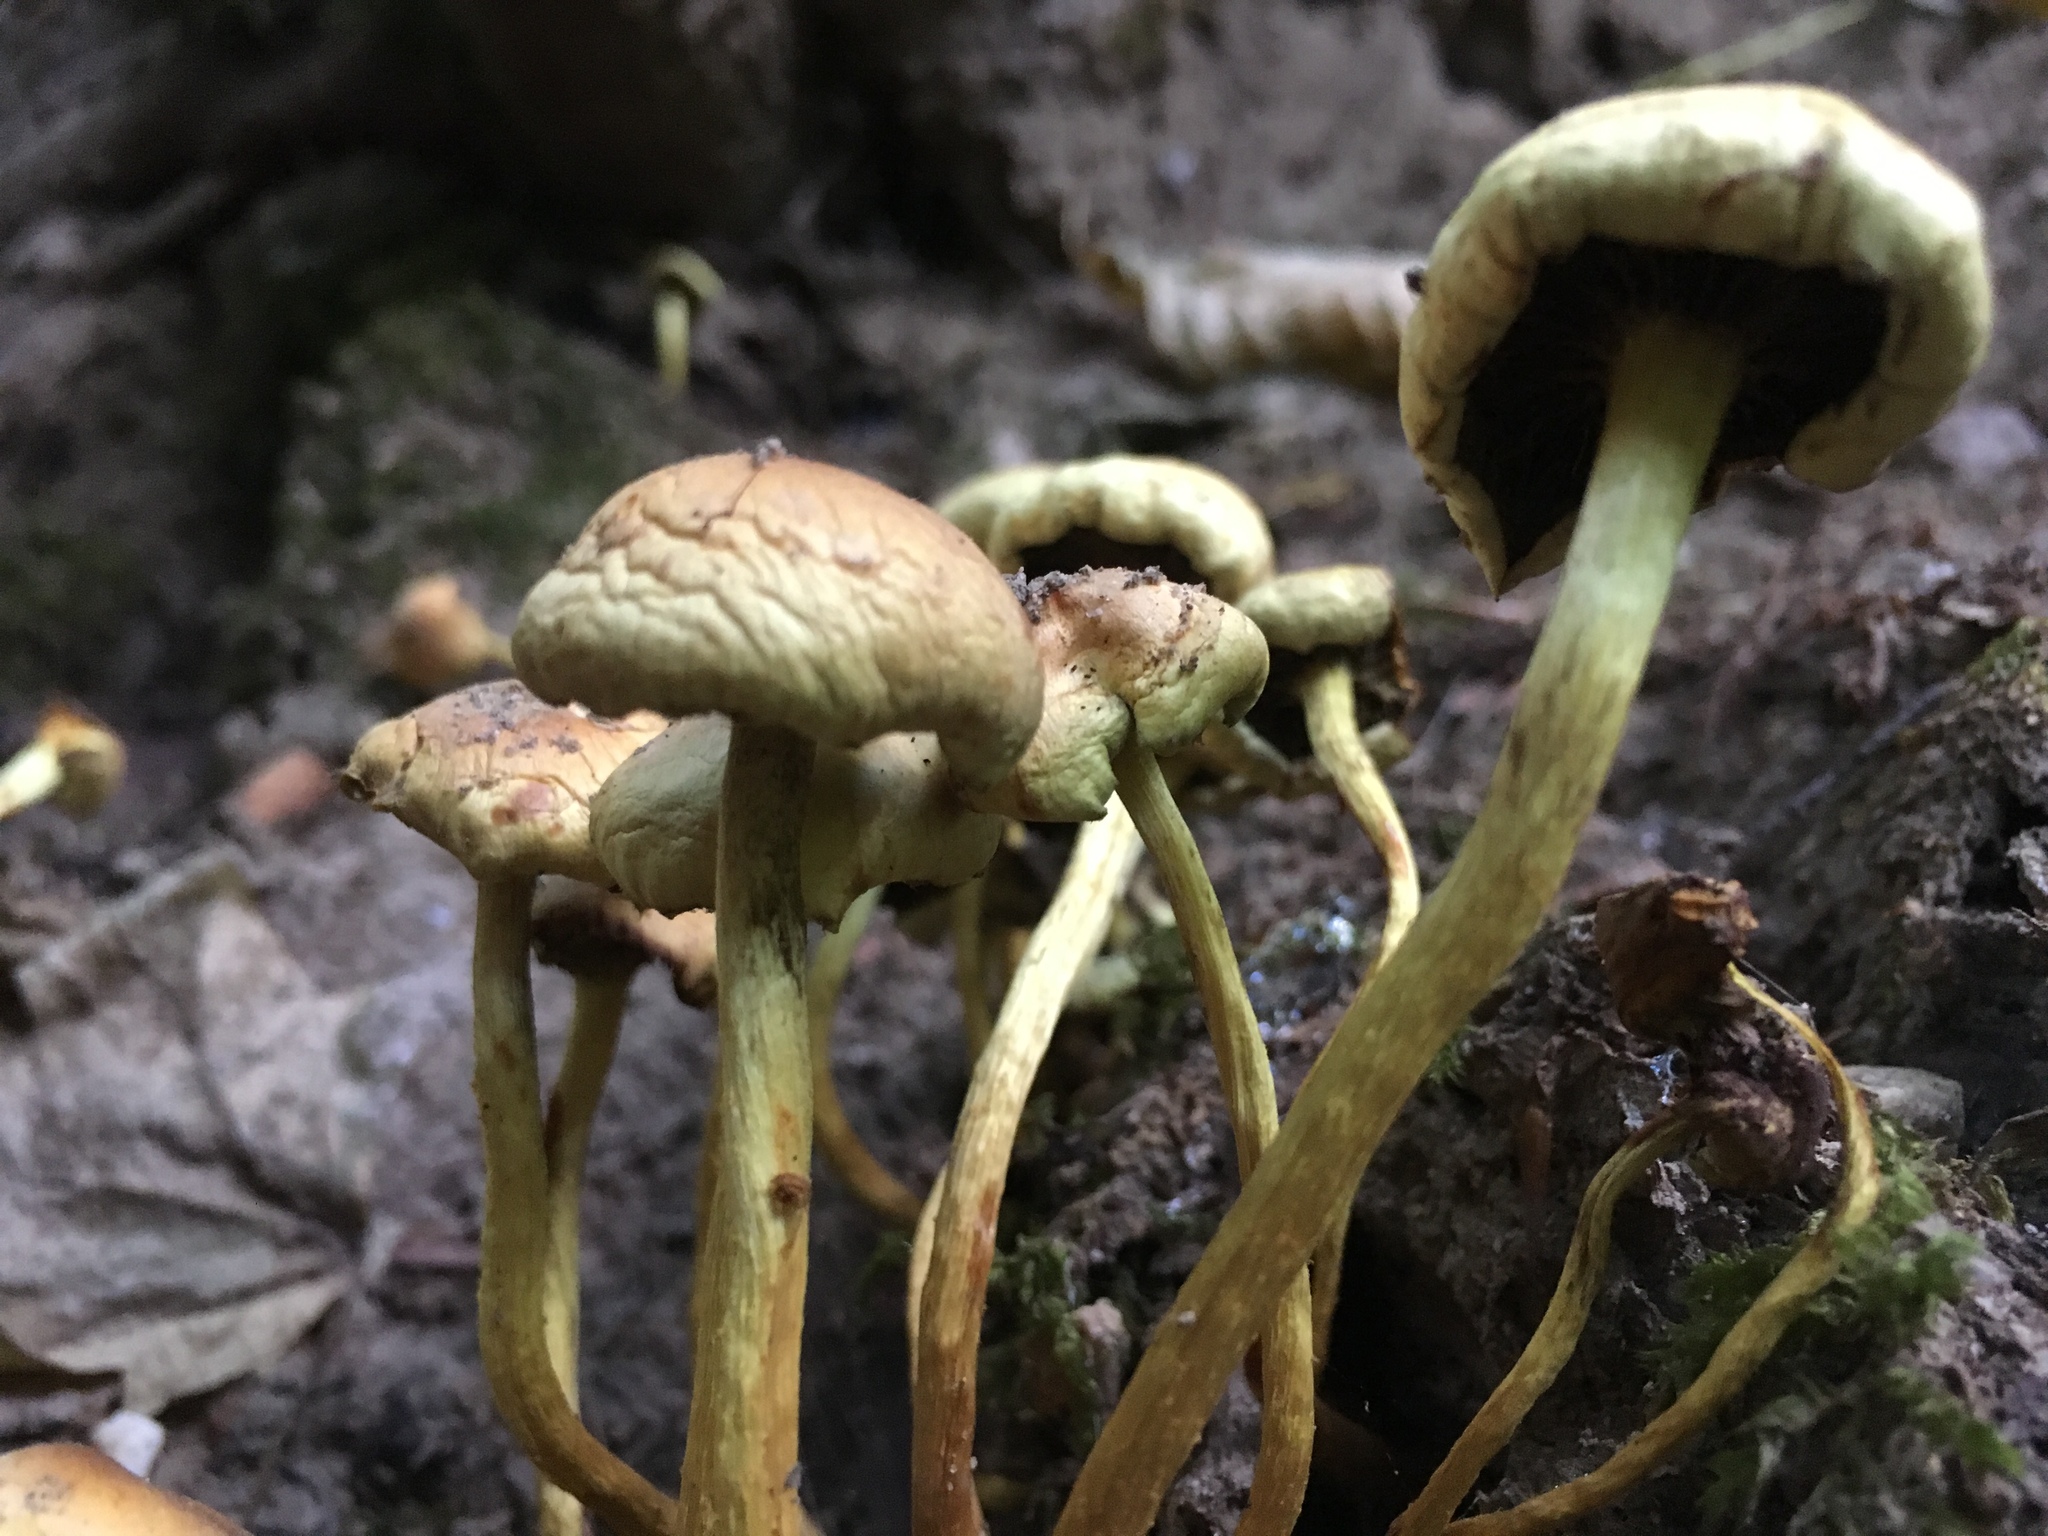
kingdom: Fungi
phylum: Basidiomycota
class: Agaricomycetes
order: Agaricales
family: Strophariaceae
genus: Hypholoma
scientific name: Hypholoma fasciculare
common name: Sulphur tuft
